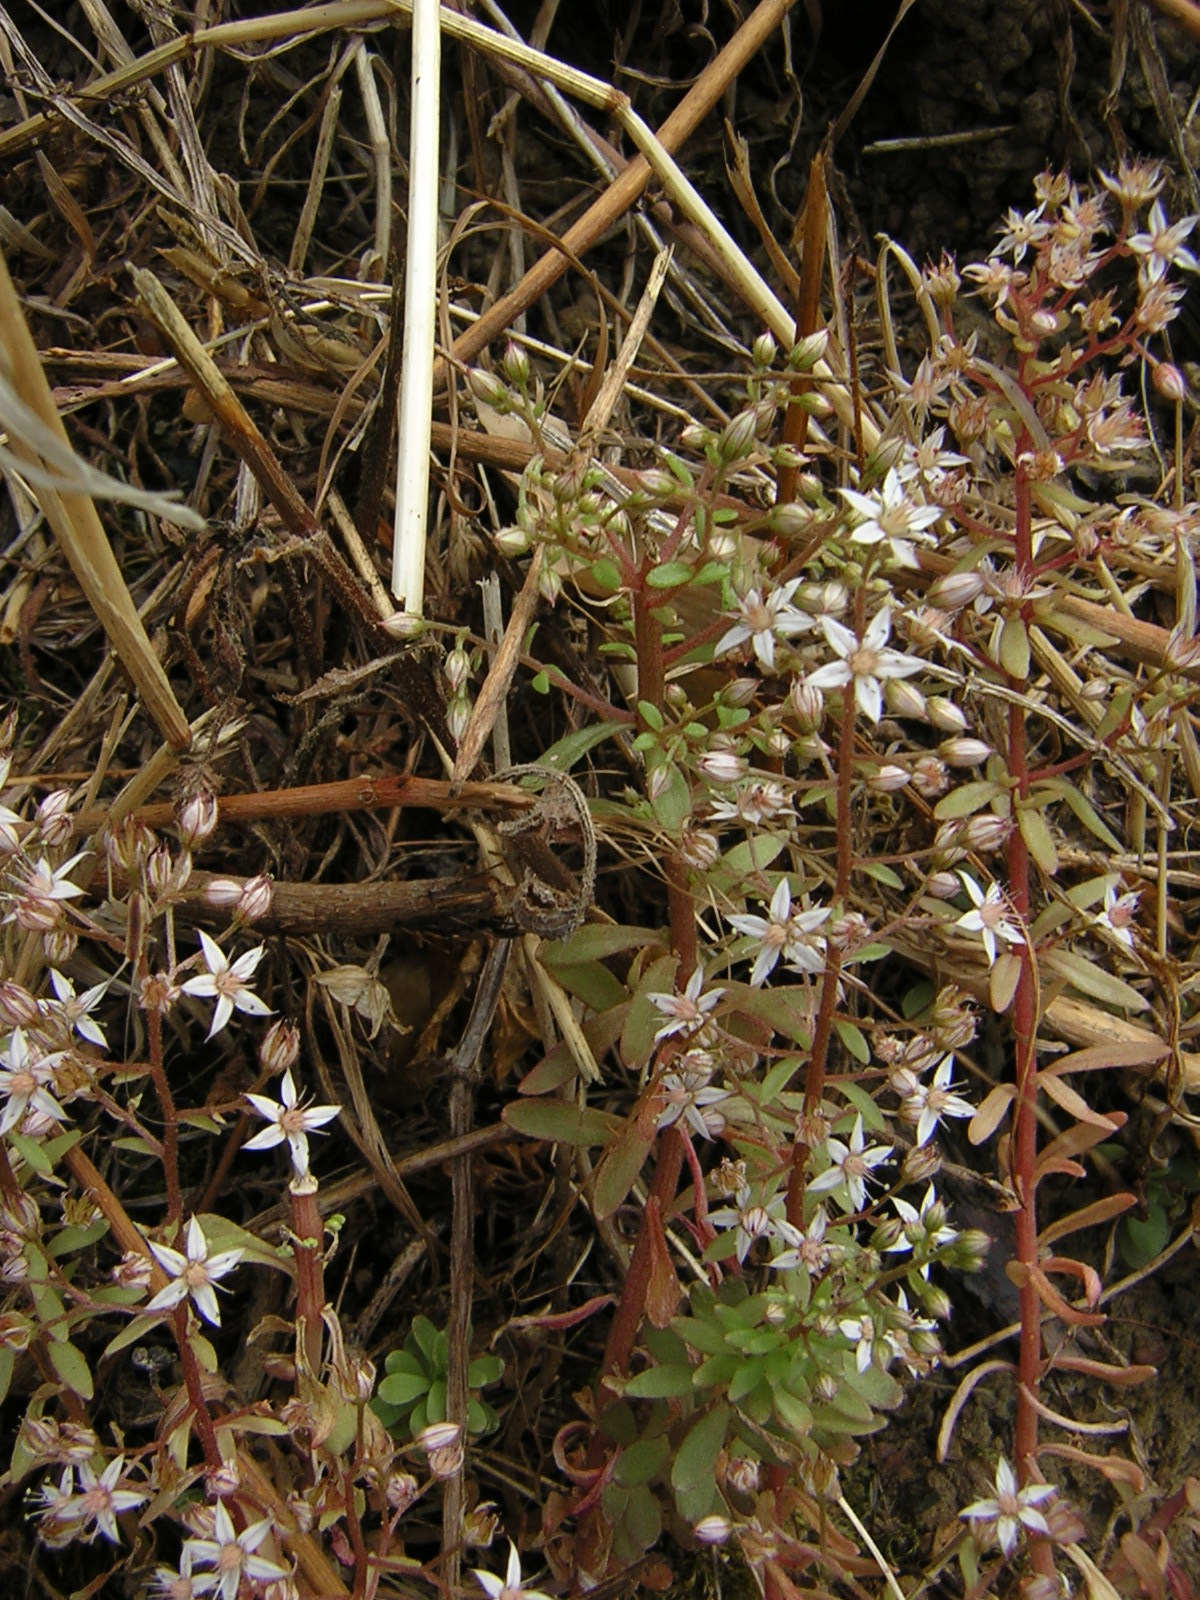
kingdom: Plantae
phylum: Tracheophyta
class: Magnoliopsida
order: Saxifragales
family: Crassulaceae
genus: Sedum
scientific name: Sedum cepaea
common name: Pink stonecrop
